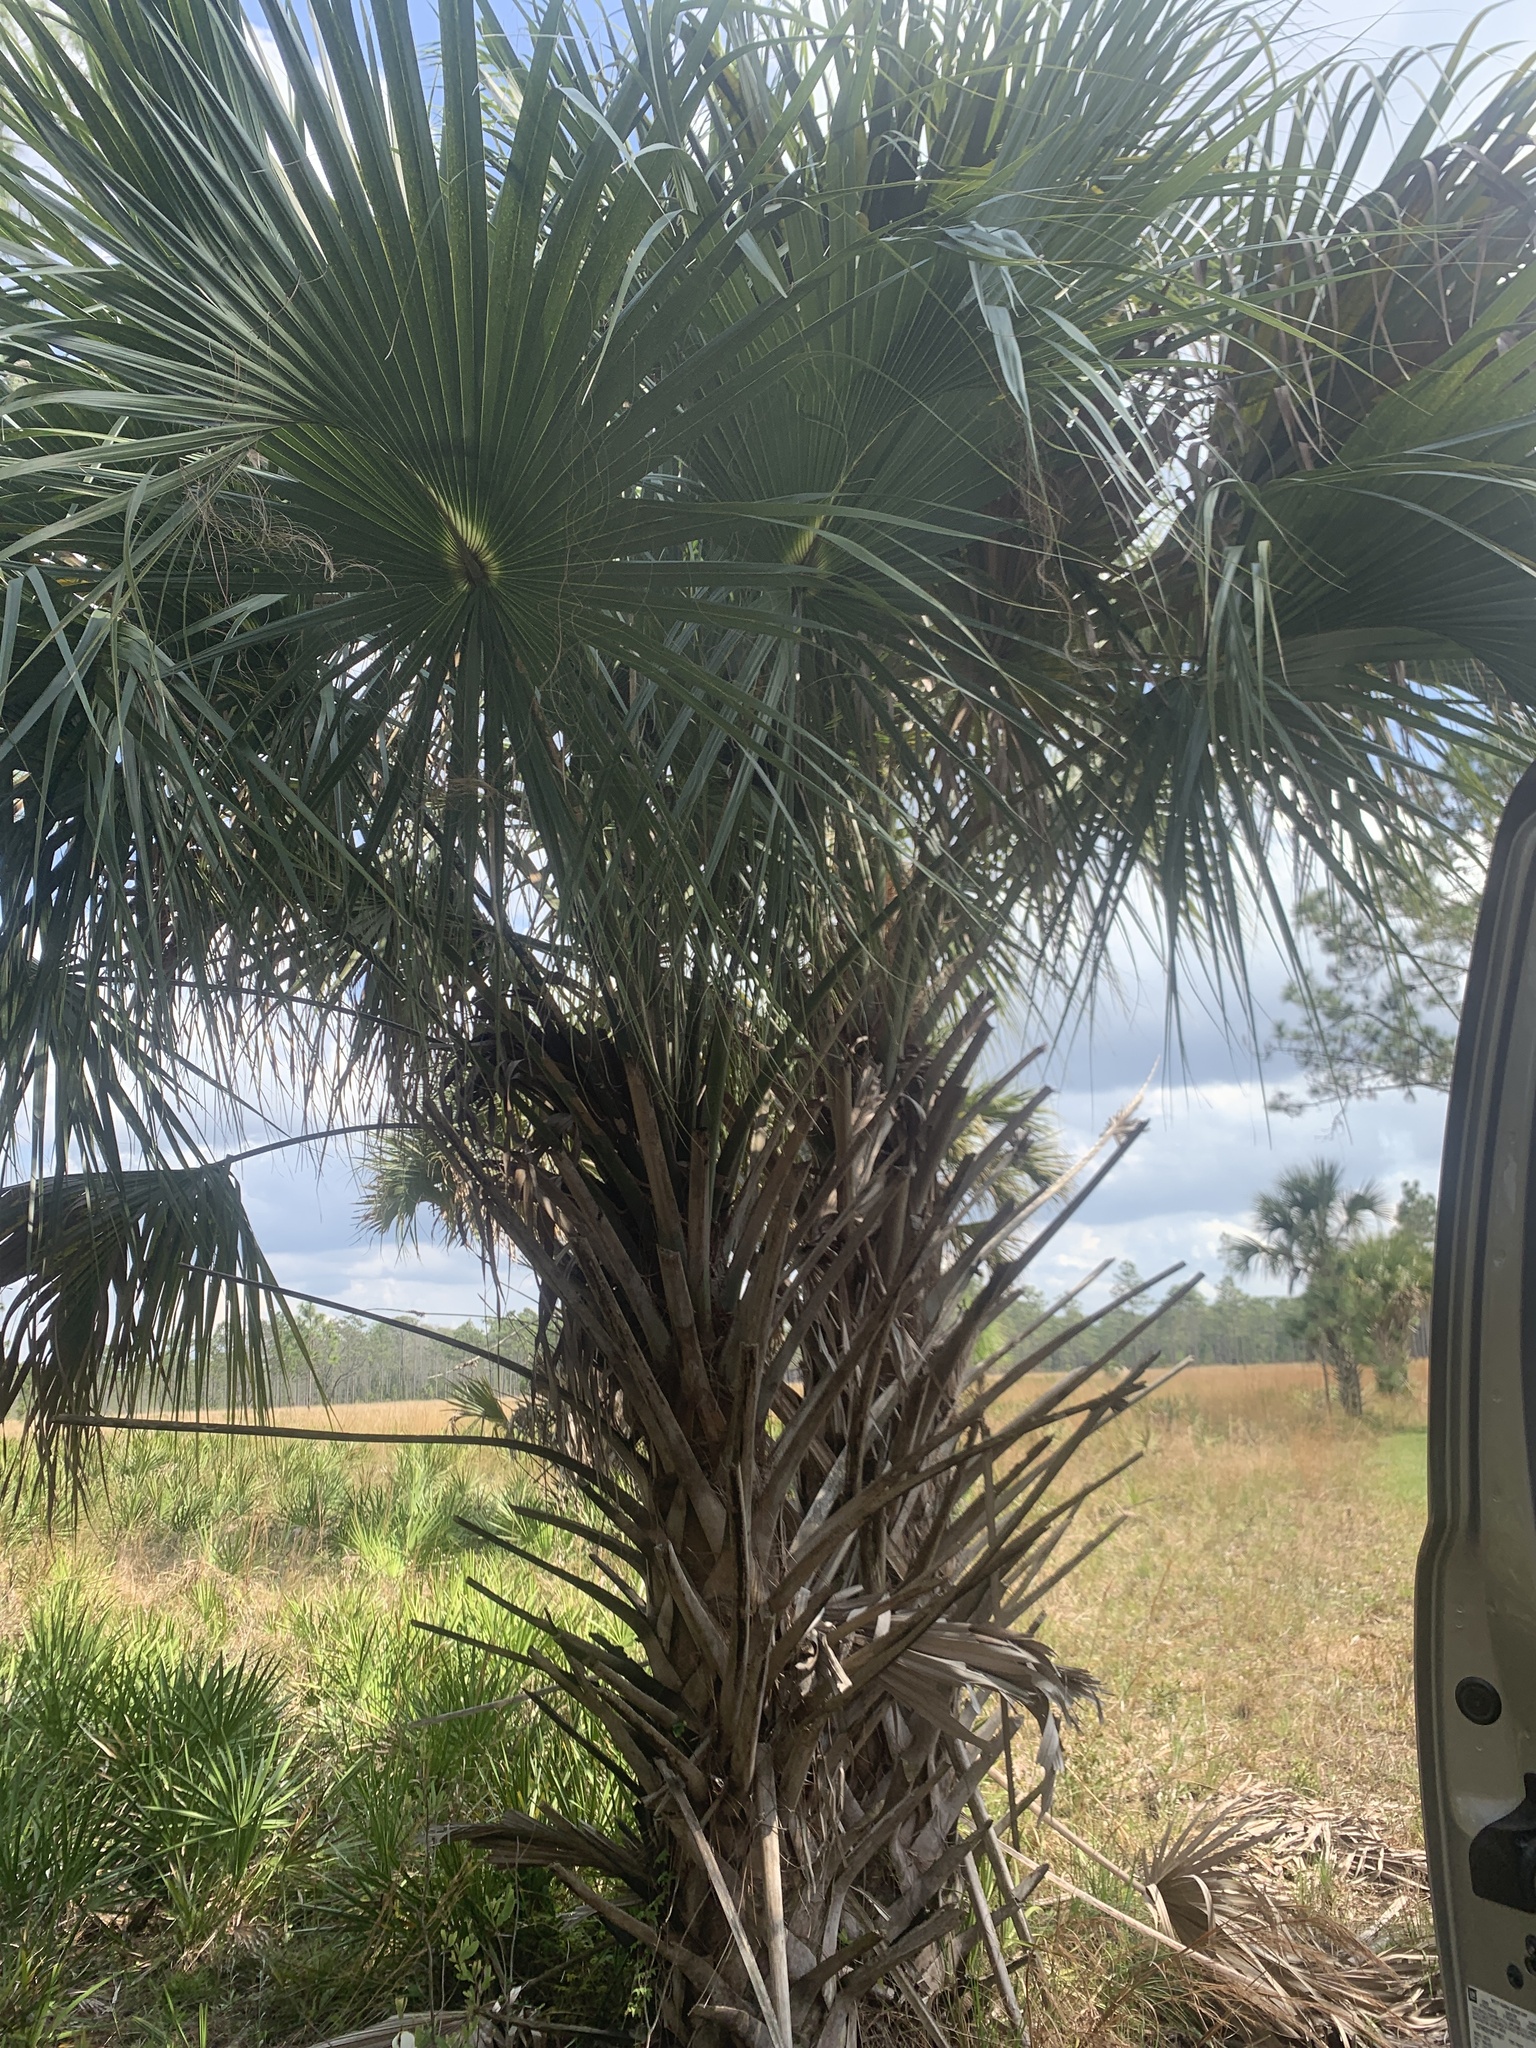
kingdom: Plantae
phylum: Tracheophyta
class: Liliopsida
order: Arecales
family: Arecaceae
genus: Sabal
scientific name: Sabal palmetto
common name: Blue palmetto
